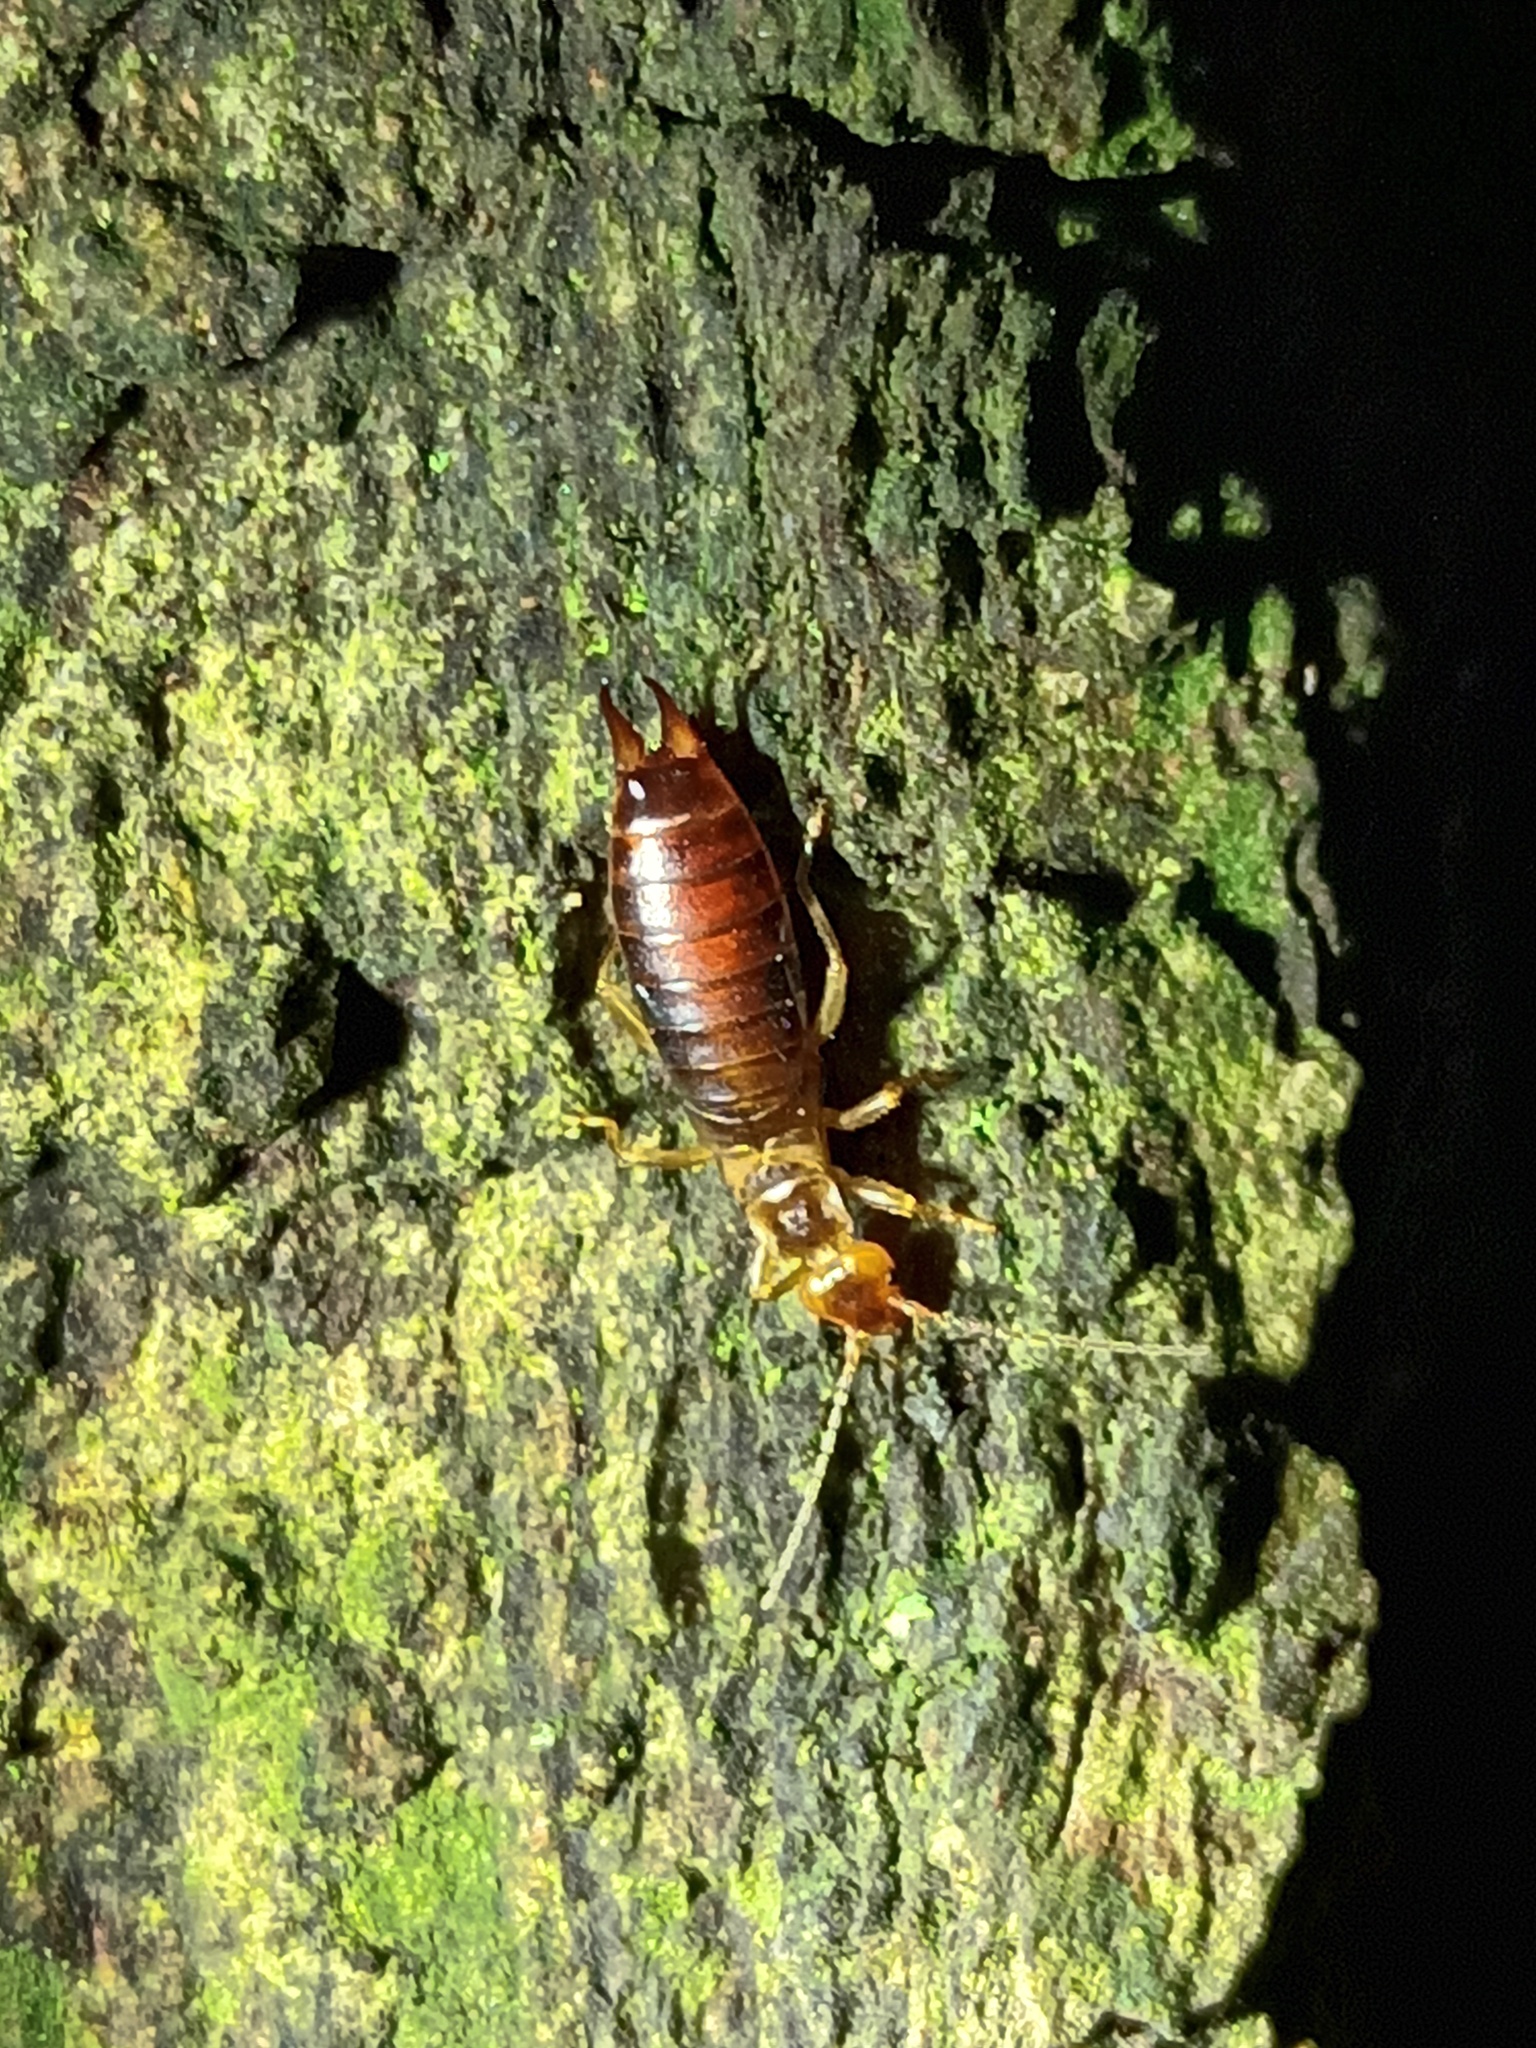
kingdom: Animalia
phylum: Arthropoda
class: Insecta
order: Dermaptera
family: Forficulidae
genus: Chelidurella
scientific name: Chelidurella acanthopygia
